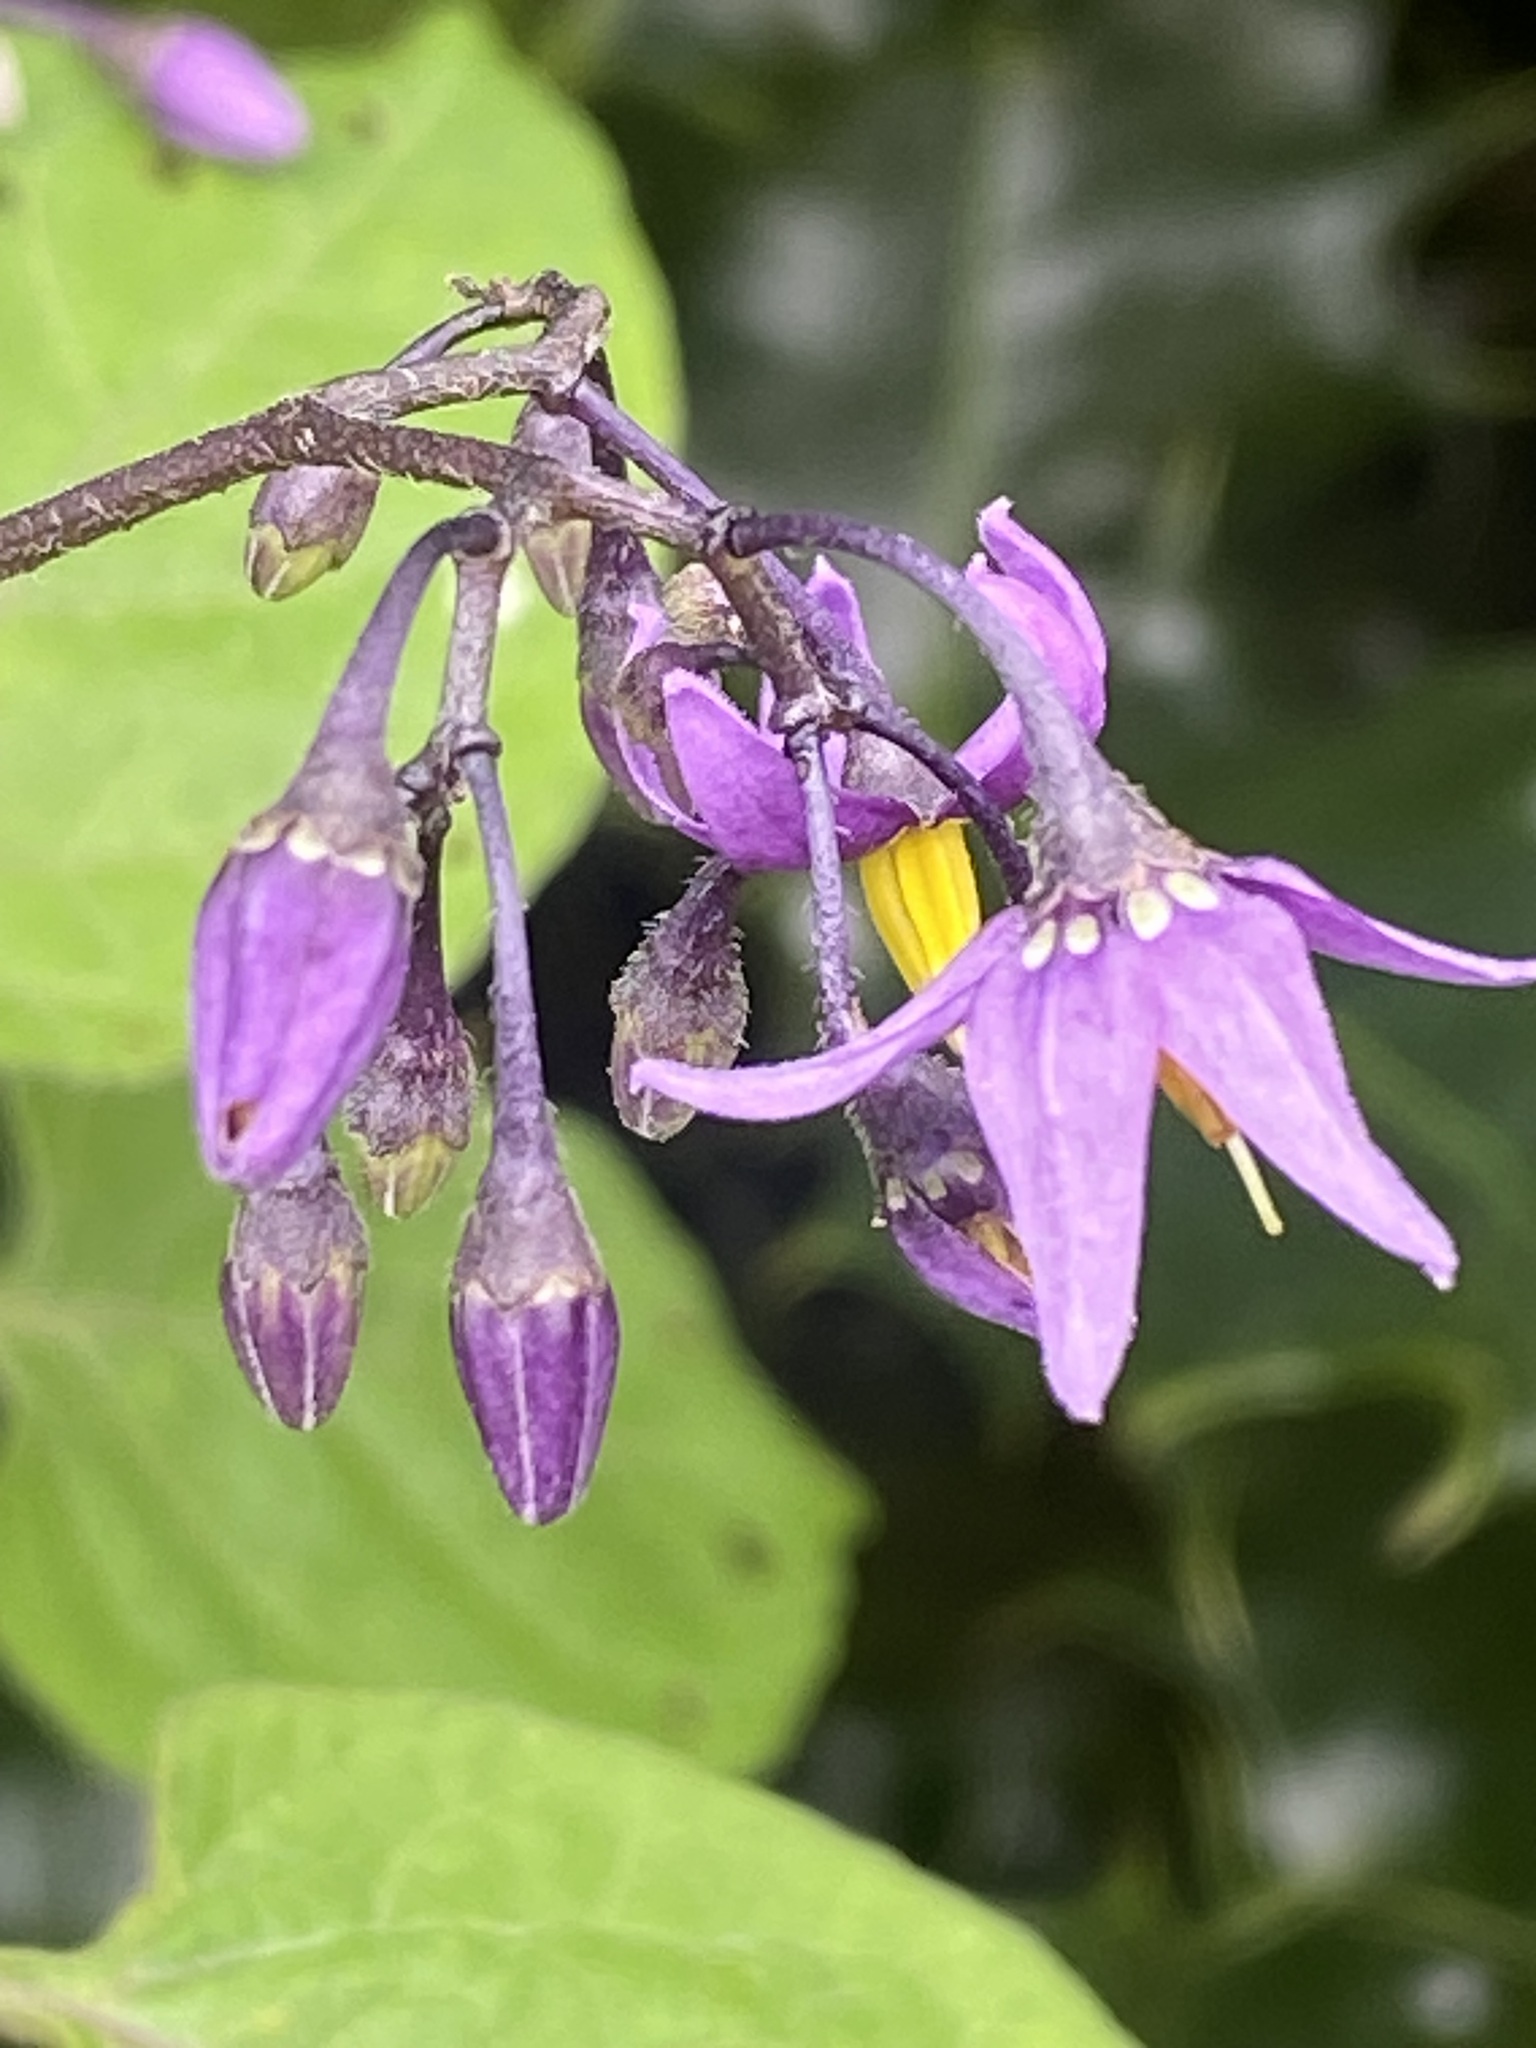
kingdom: Plantae
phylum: Tracheophyta
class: Magnoliopsida
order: Solanales
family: Solanaceae
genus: Solanum
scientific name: Solanum dulcamara
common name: Climbing nightshade
